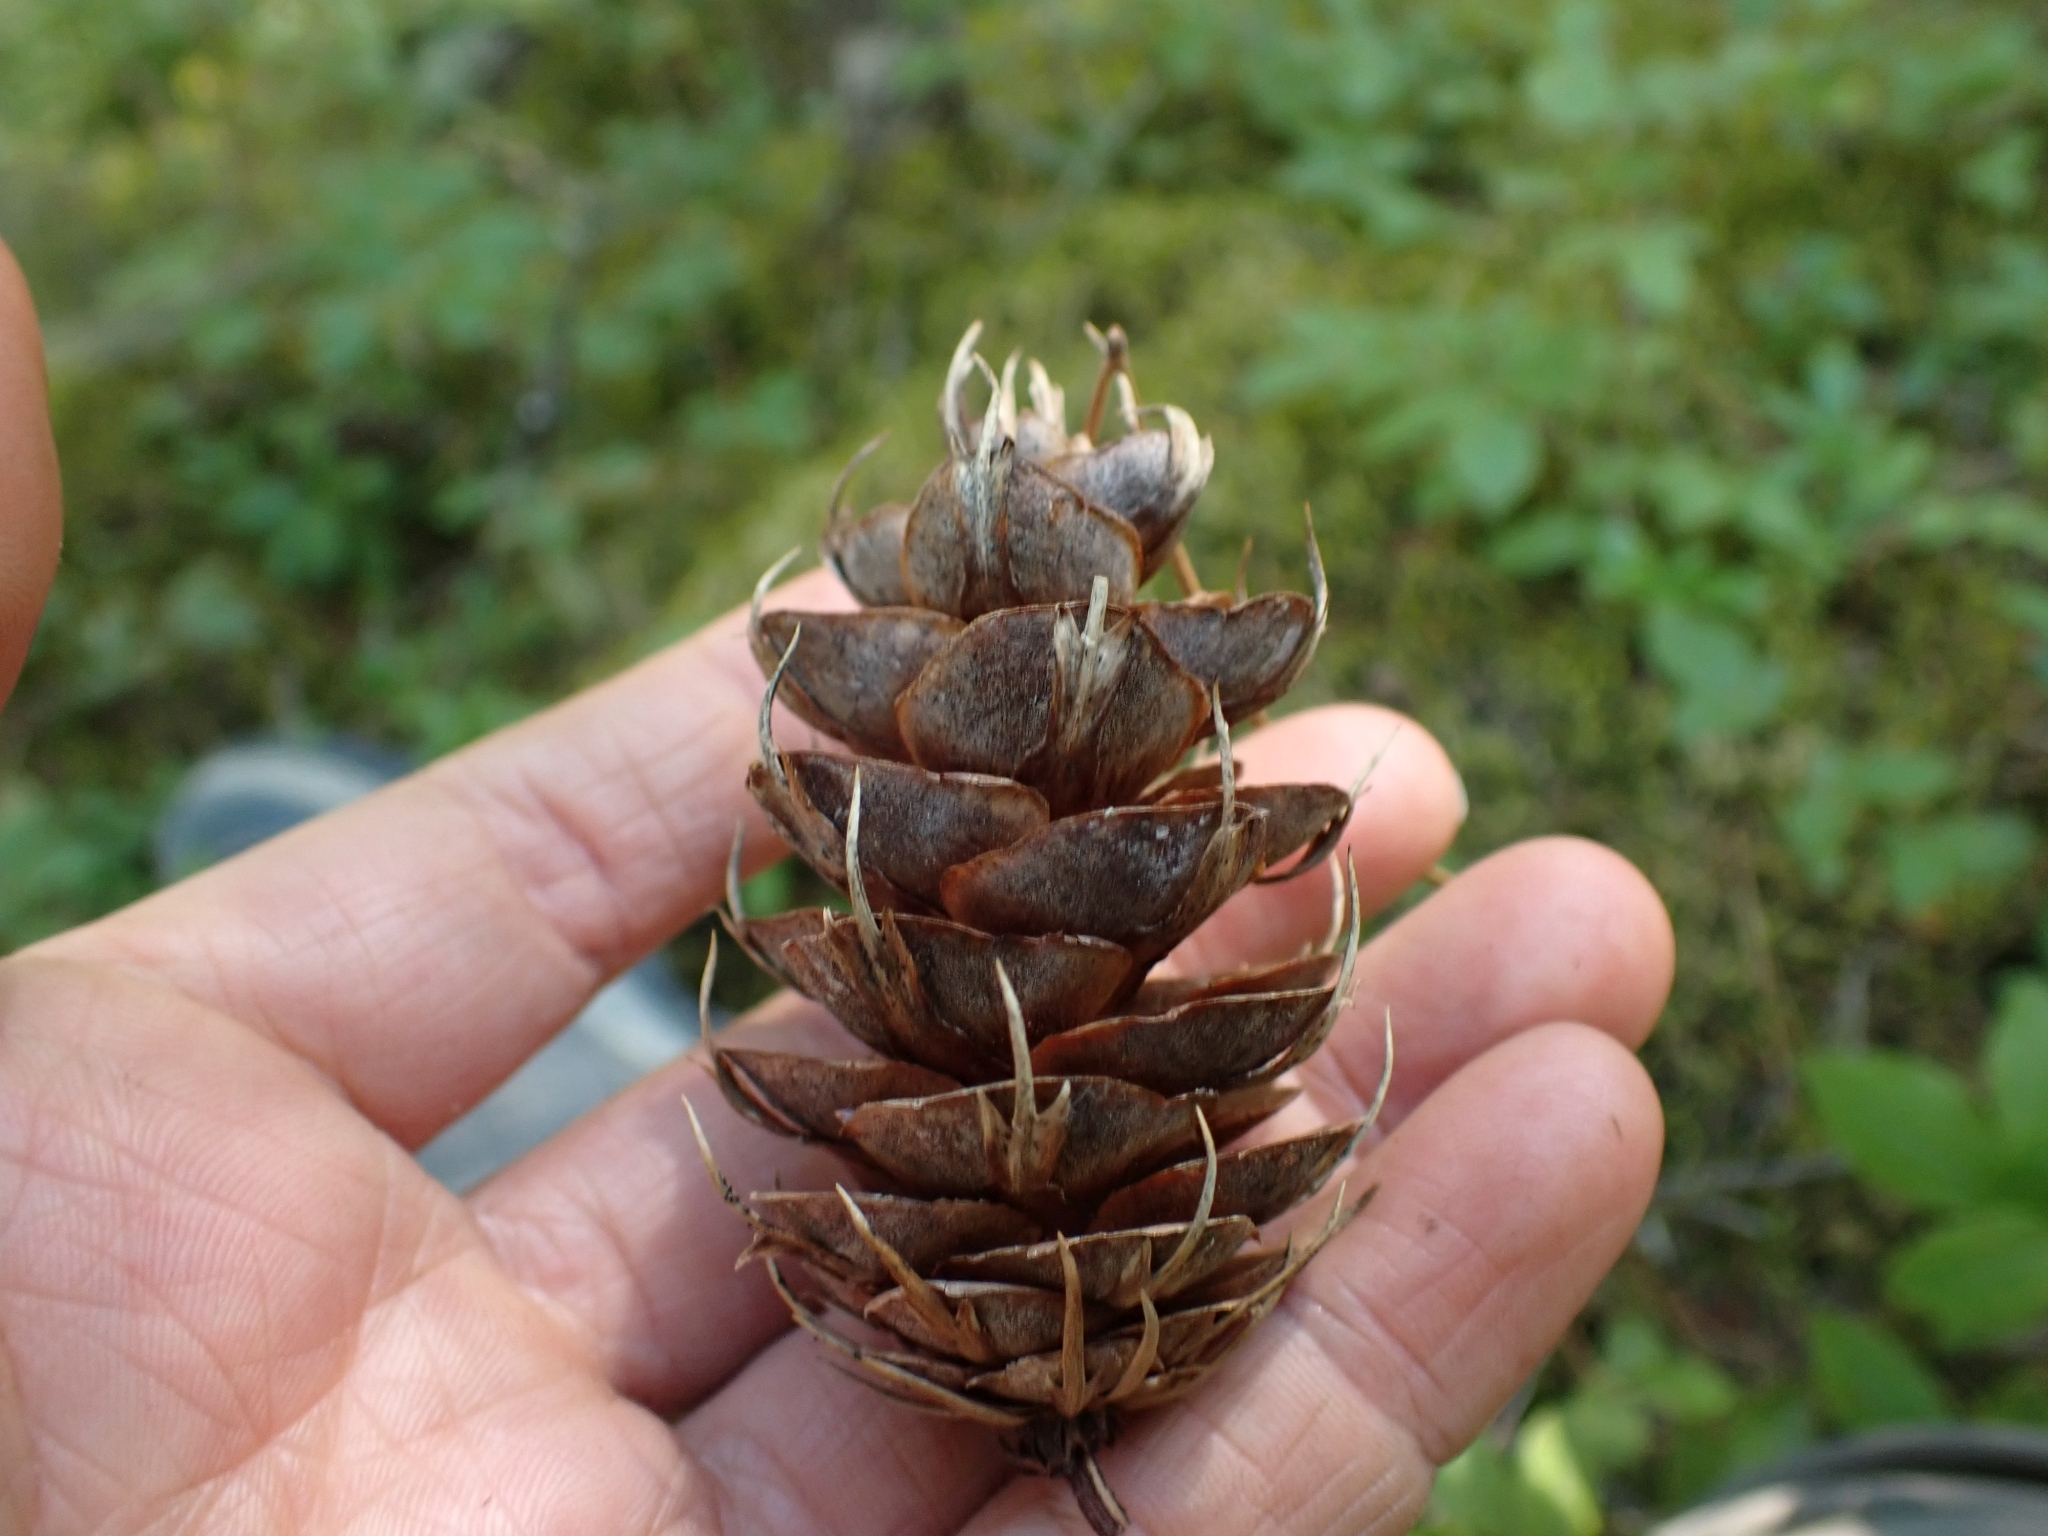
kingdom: Plantae
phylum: Tracheophyta
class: Pinopsida
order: Pinales
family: Pinaceae
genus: Pseudotsuga
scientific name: Pseudotsuga menziesii
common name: Douglas fir
